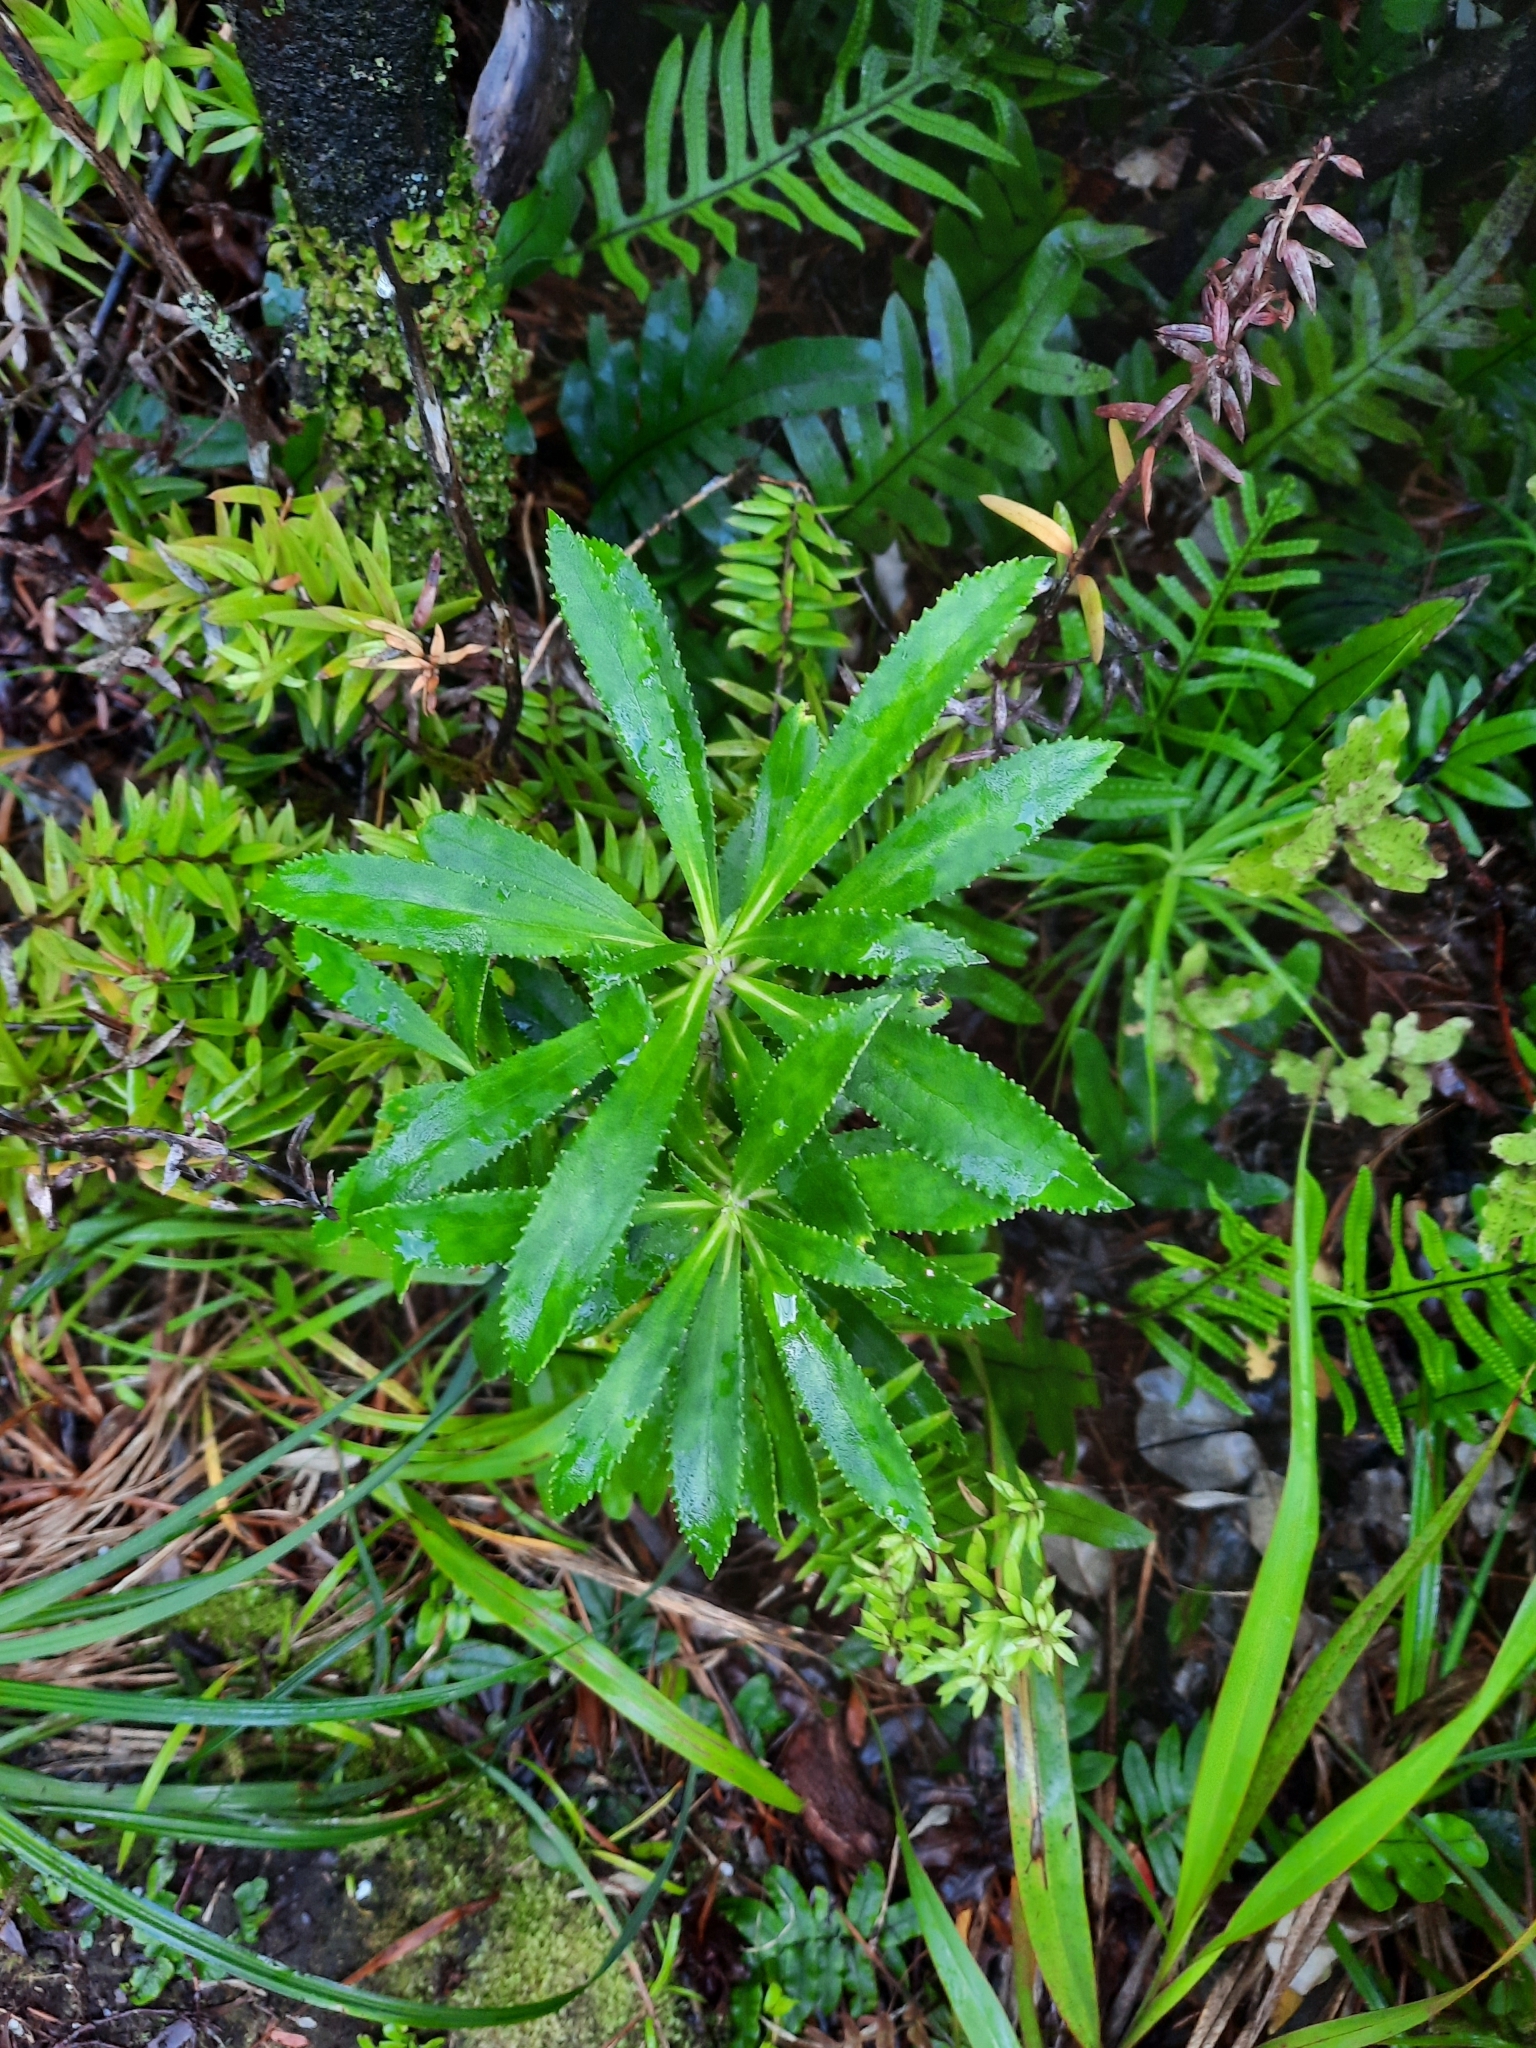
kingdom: Plantae
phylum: Tracheophyta
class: Magnoliopsida
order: Asterales
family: Asteraceae
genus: Macrolearia
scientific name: Macrolearia oporina
